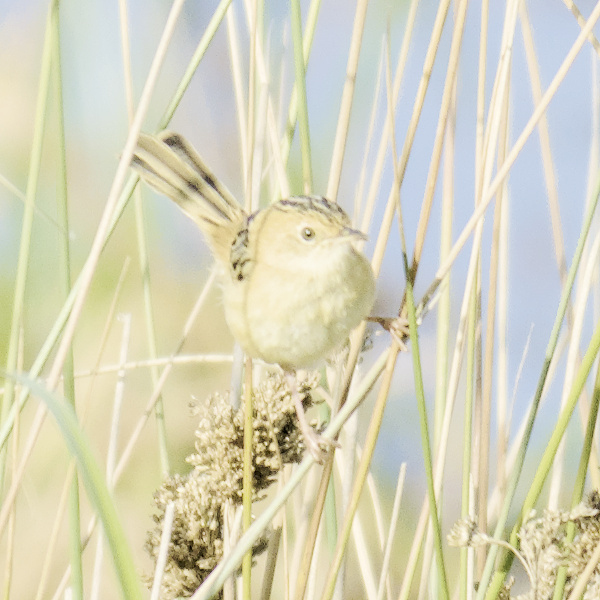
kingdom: Animalia
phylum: Chordata
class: Aves
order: Passeriformes
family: Cisticolidae
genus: Cisticola
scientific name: Cisticola exilis
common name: Golden-headed cisticola
